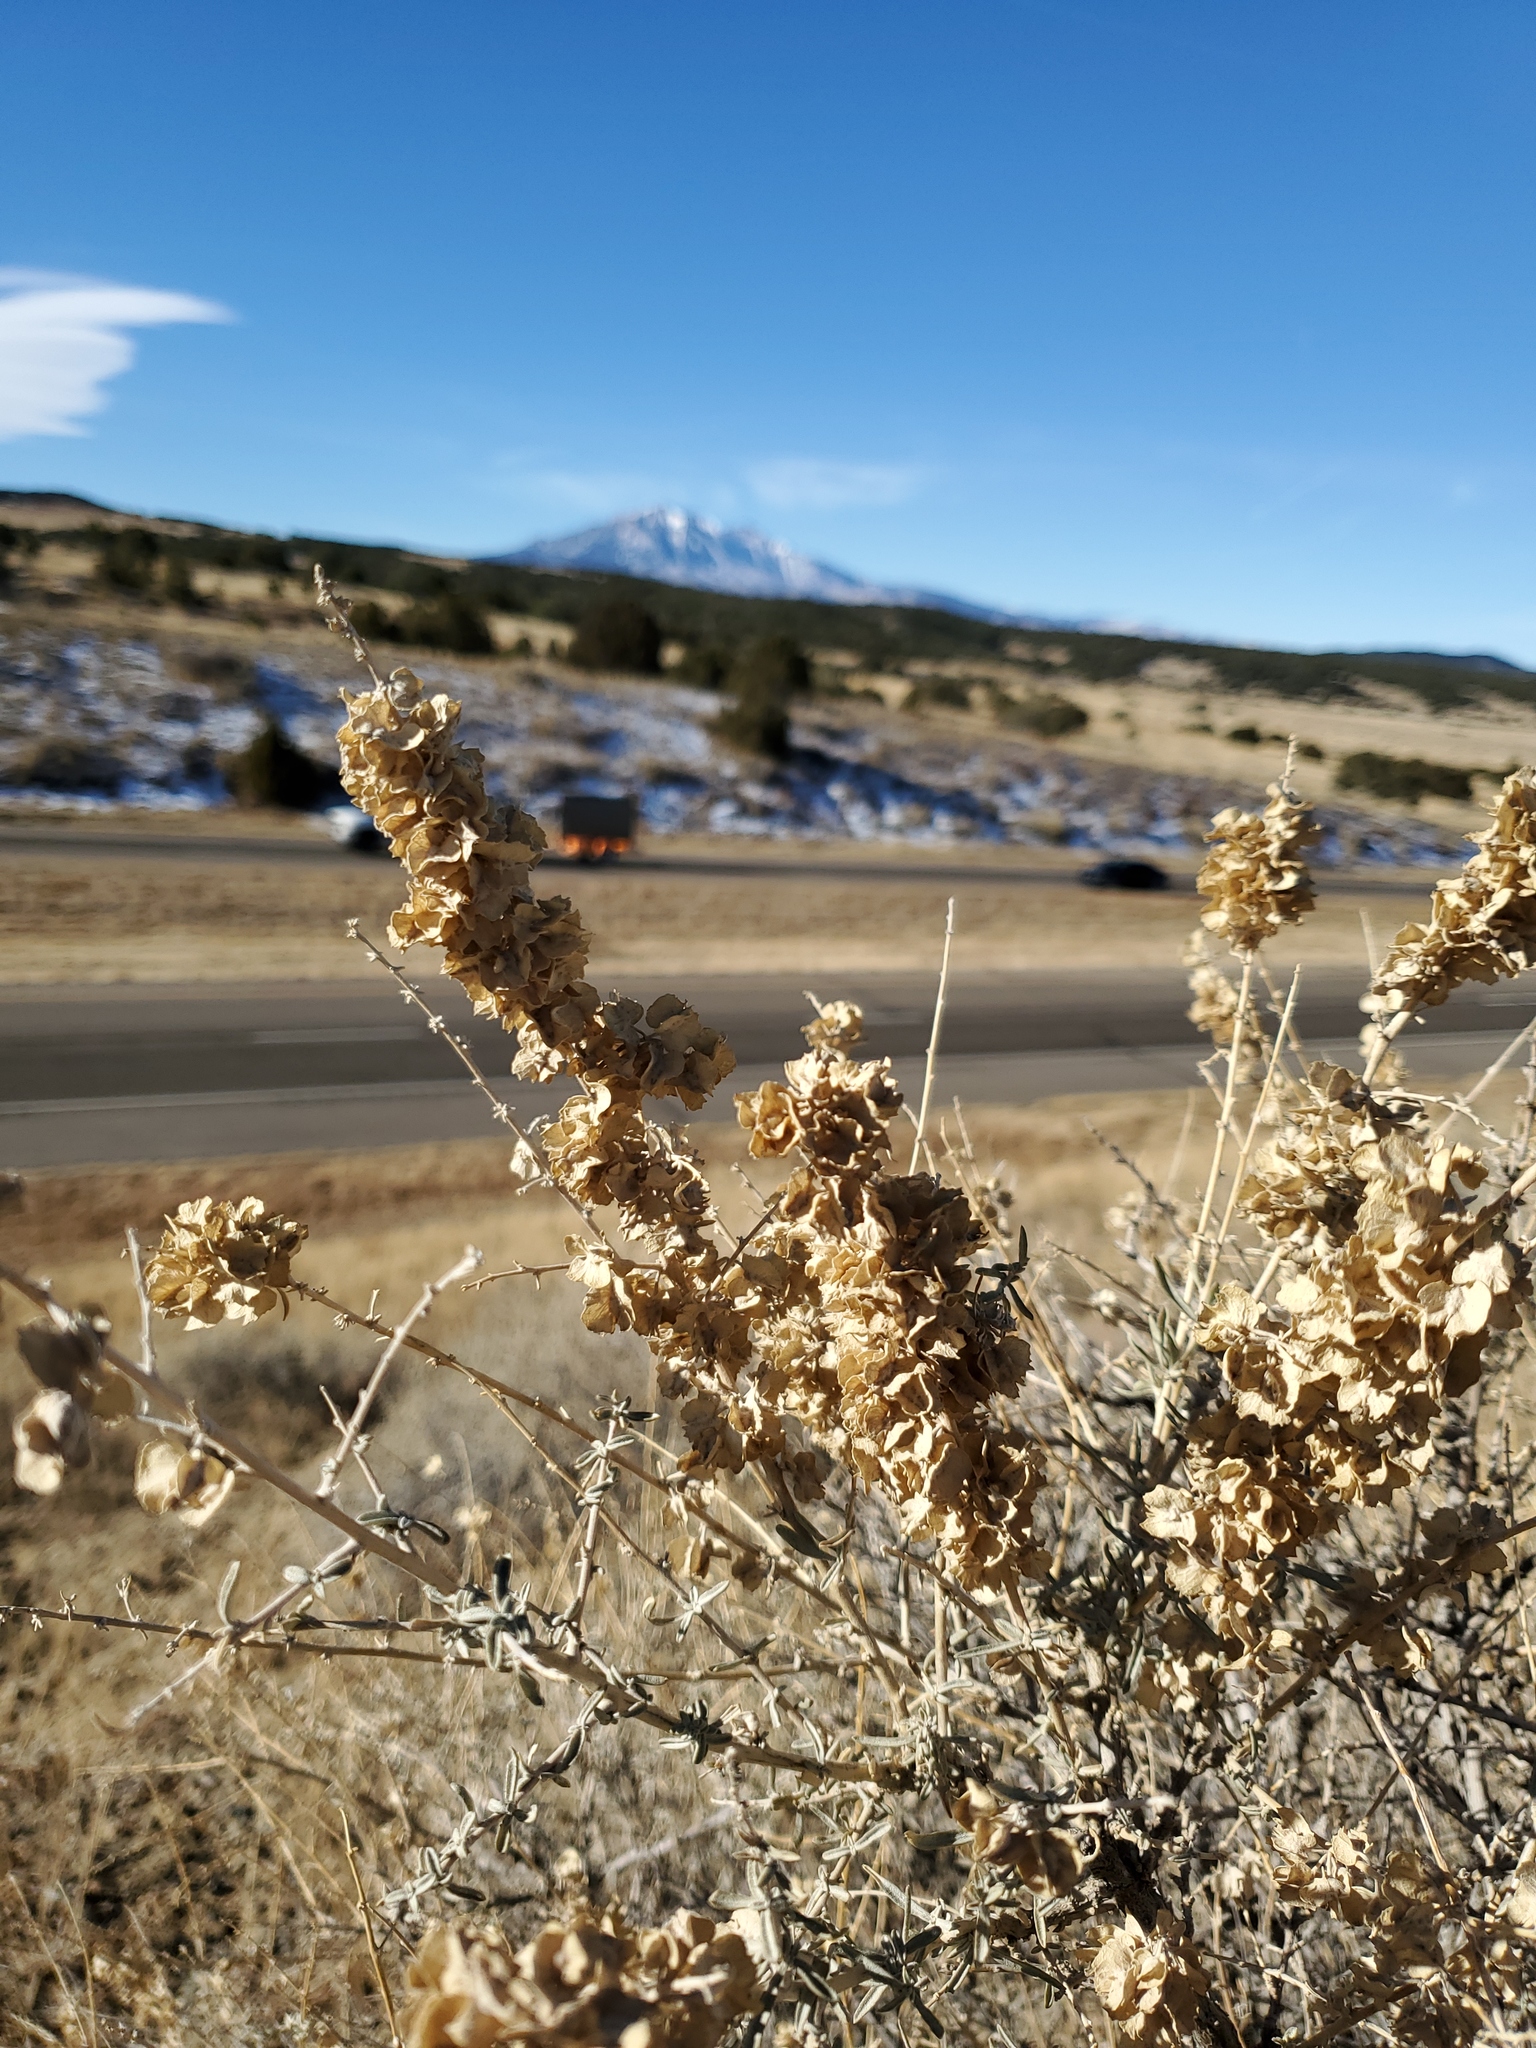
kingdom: Plantae
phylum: Tracheophyta
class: Magnoliopsida
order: Caryophyllales
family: Amaranthaceae
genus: Atriplex
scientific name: Atriplex canescens
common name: Four-wing saltbush
